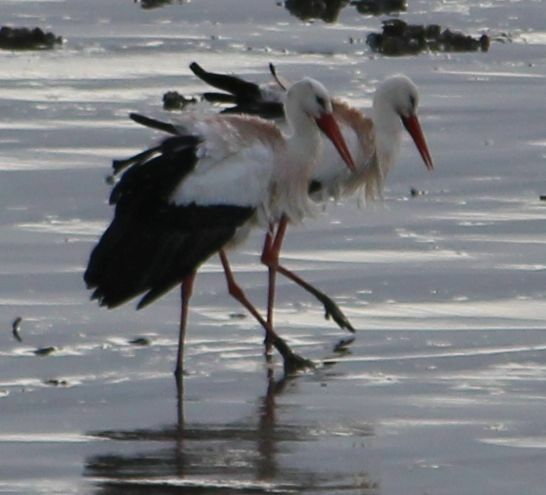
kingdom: Animalia
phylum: Chordata
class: Aves
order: Ciconiiformes
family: Ciconiidae
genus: Ciconia
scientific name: Ciconia ciconia
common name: White stork
